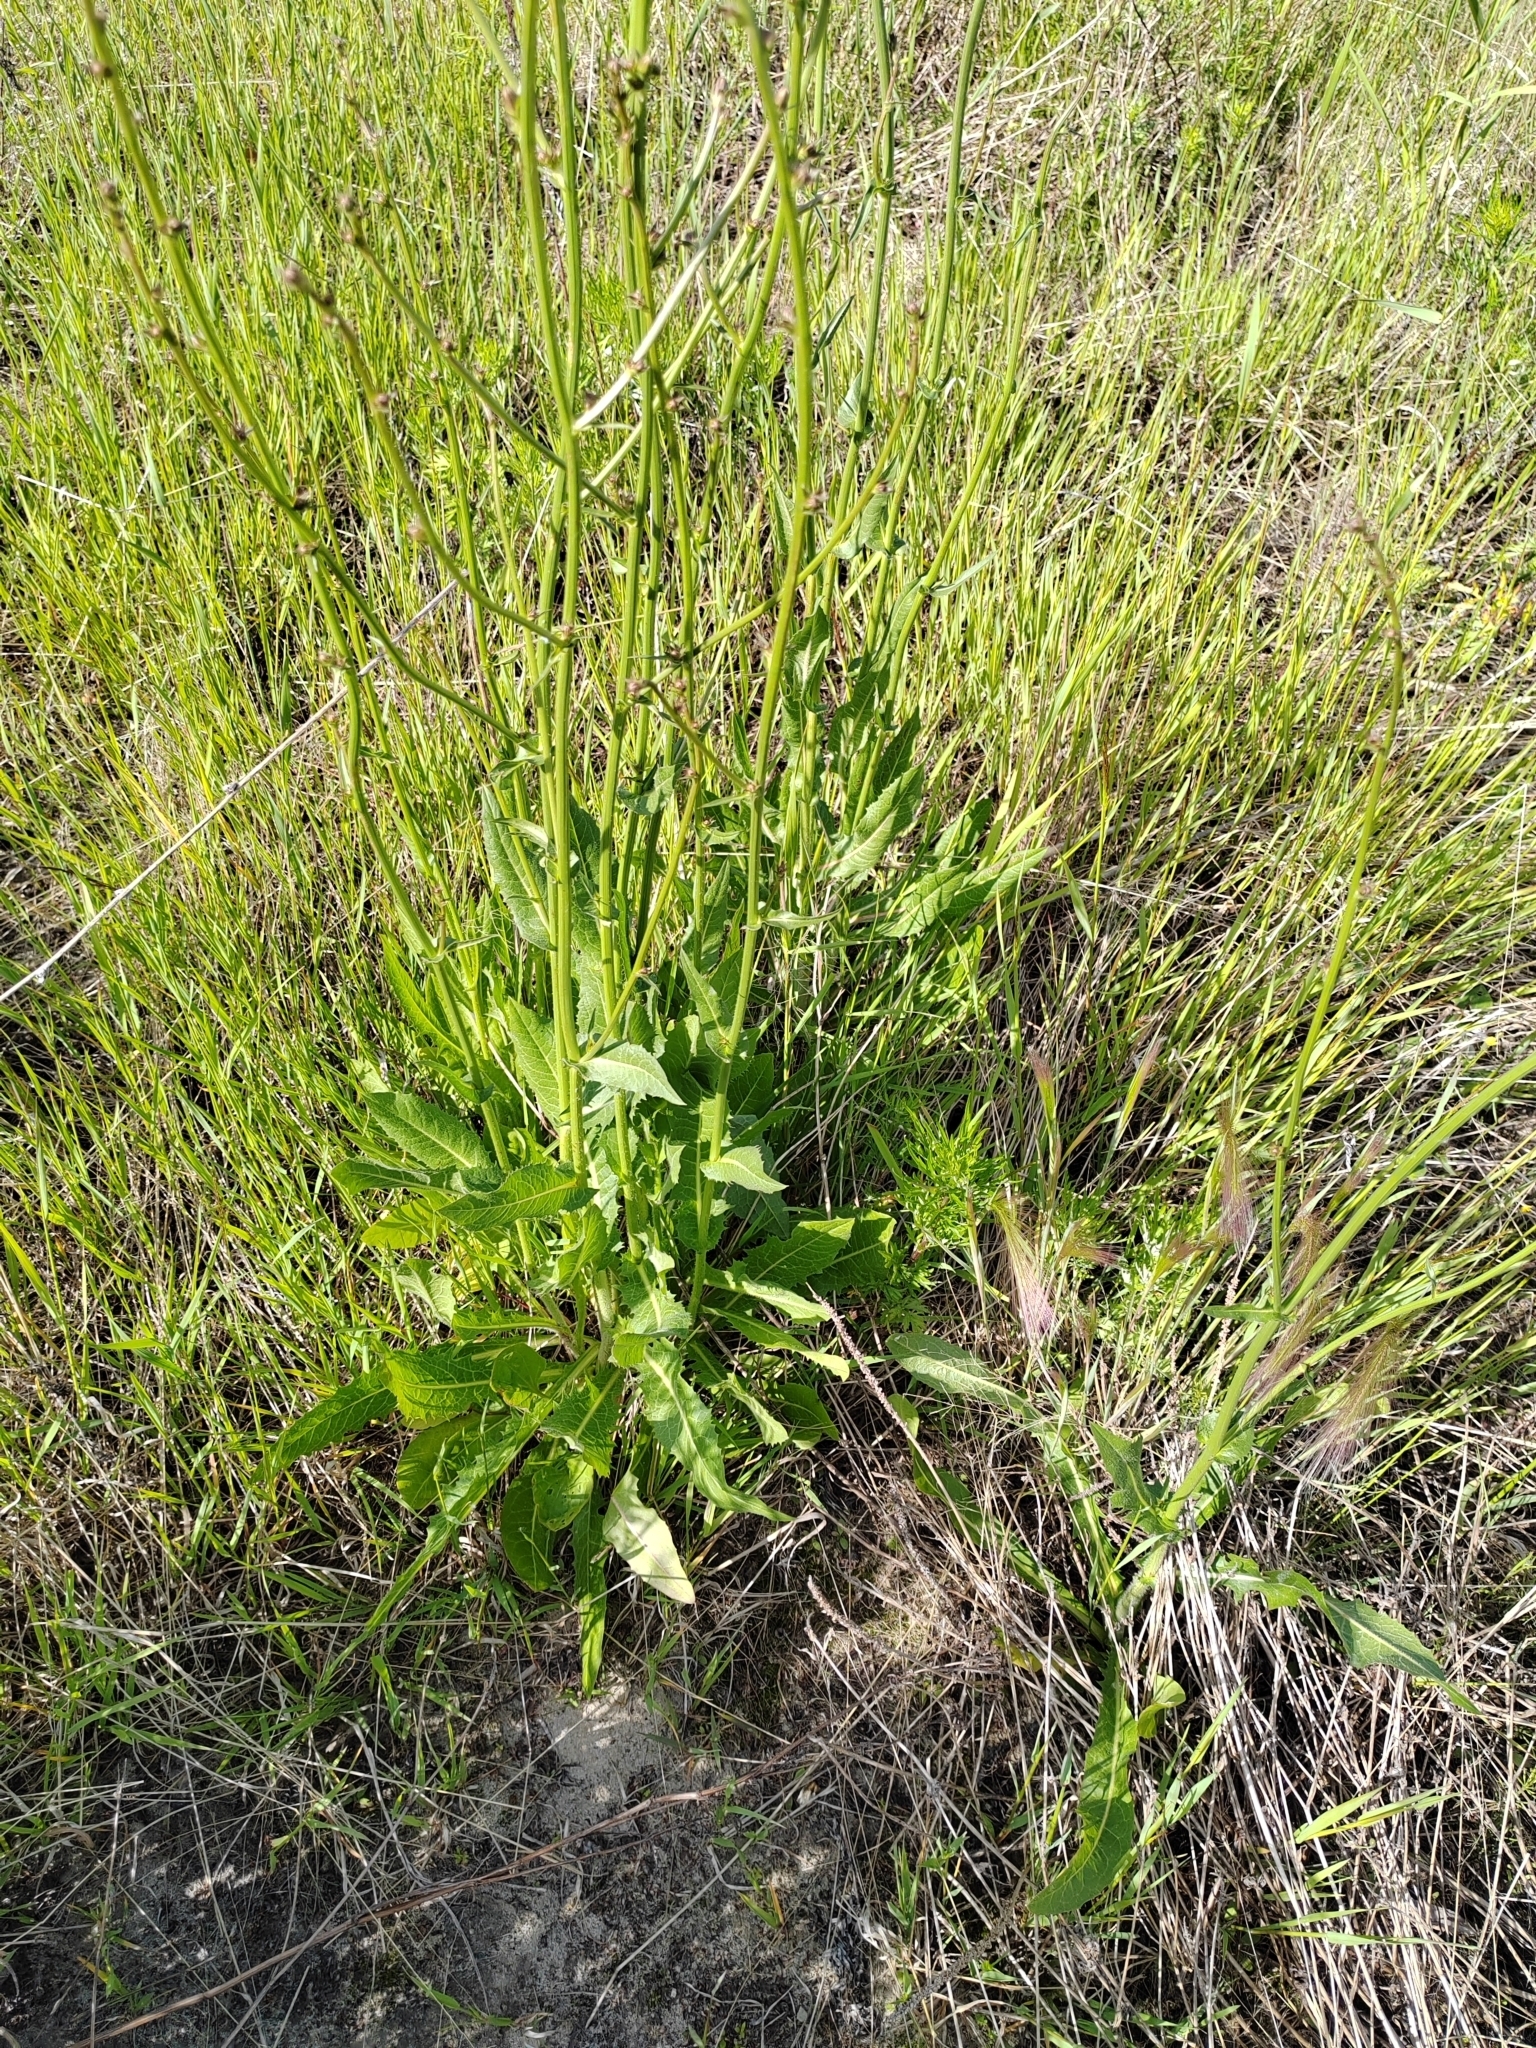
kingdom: Plantae
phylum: Tracheophyta
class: Magnoliopsida
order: Asterales
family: Asteraceae
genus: Sonchus
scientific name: Sonchus arvensis
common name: Perennial sow-thistle
